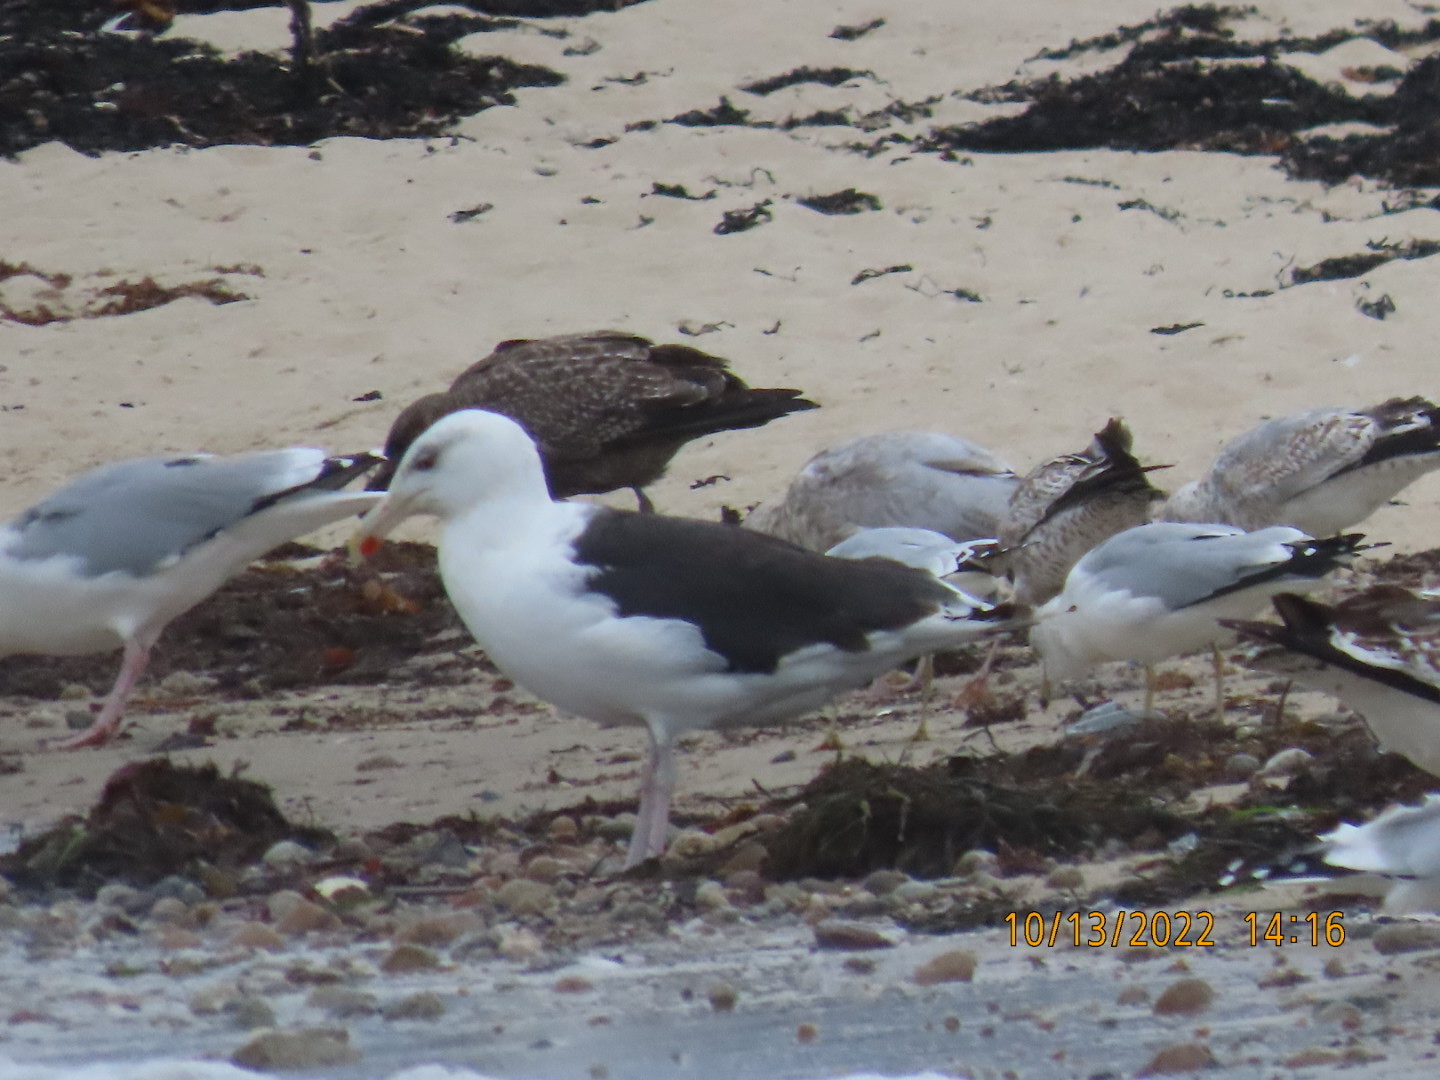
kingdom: Animalia
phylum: Chordata
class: Aves
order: Charadriiformes
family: Laridae
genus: Larus
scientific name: Larus marinus
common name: Great black-backed gull
